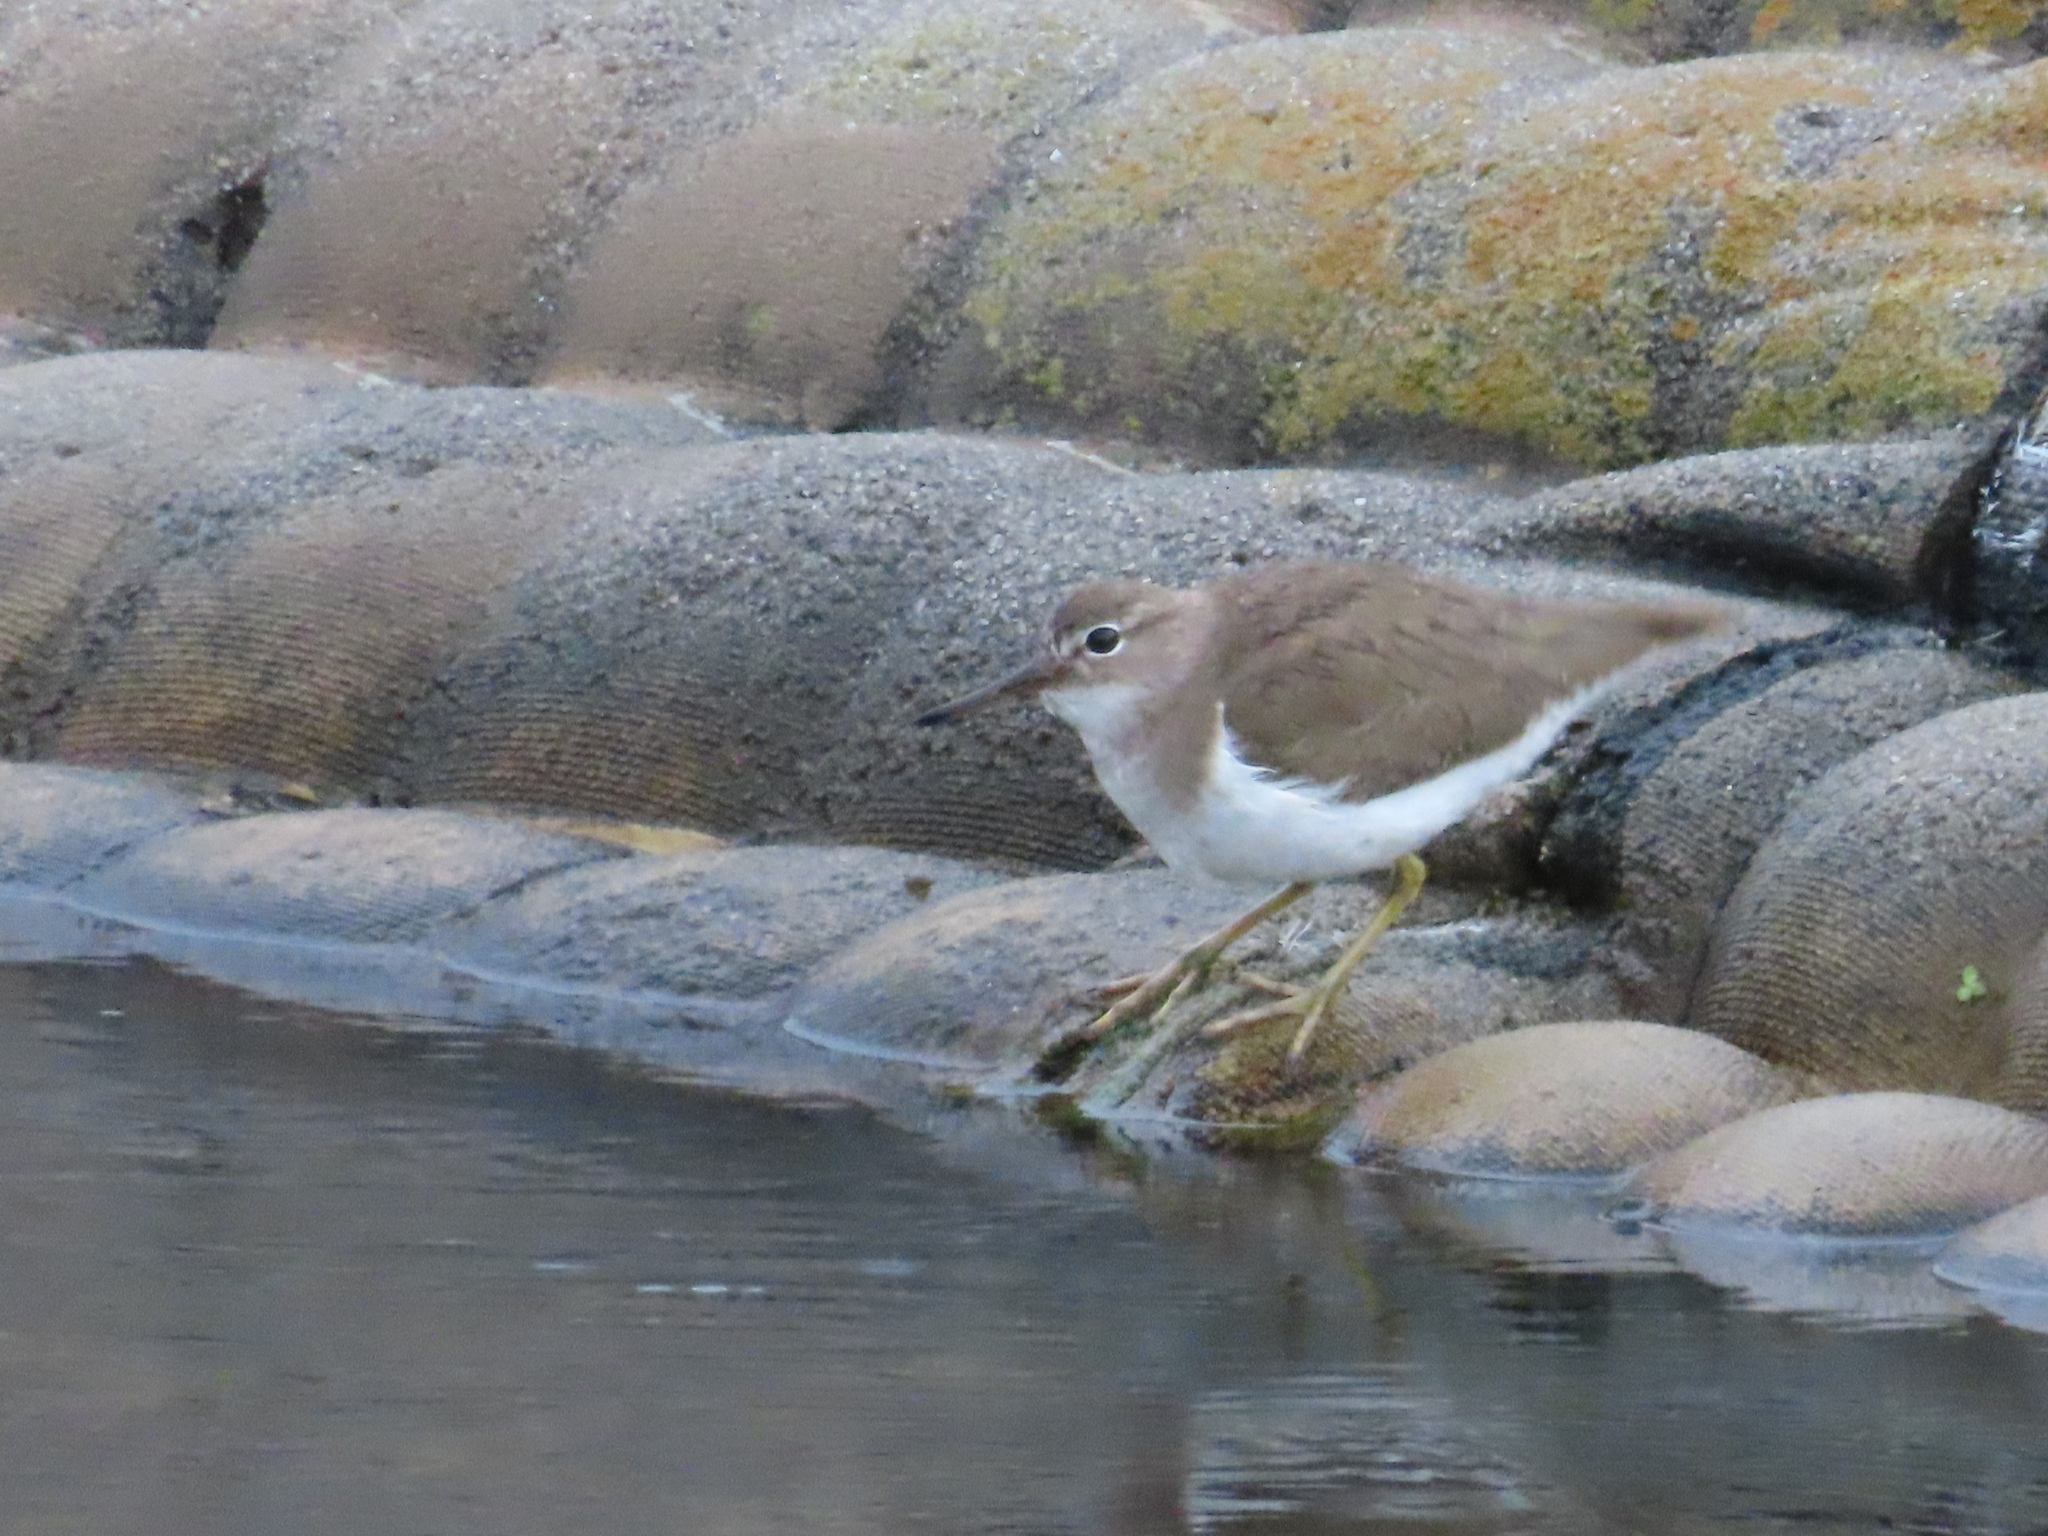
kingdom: Animalia
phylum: Chordata
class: Aves
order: Charadriiformes
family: Scolopacidae
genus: Actitis
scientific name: Actitis macularius
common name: Spotted sandpiper
